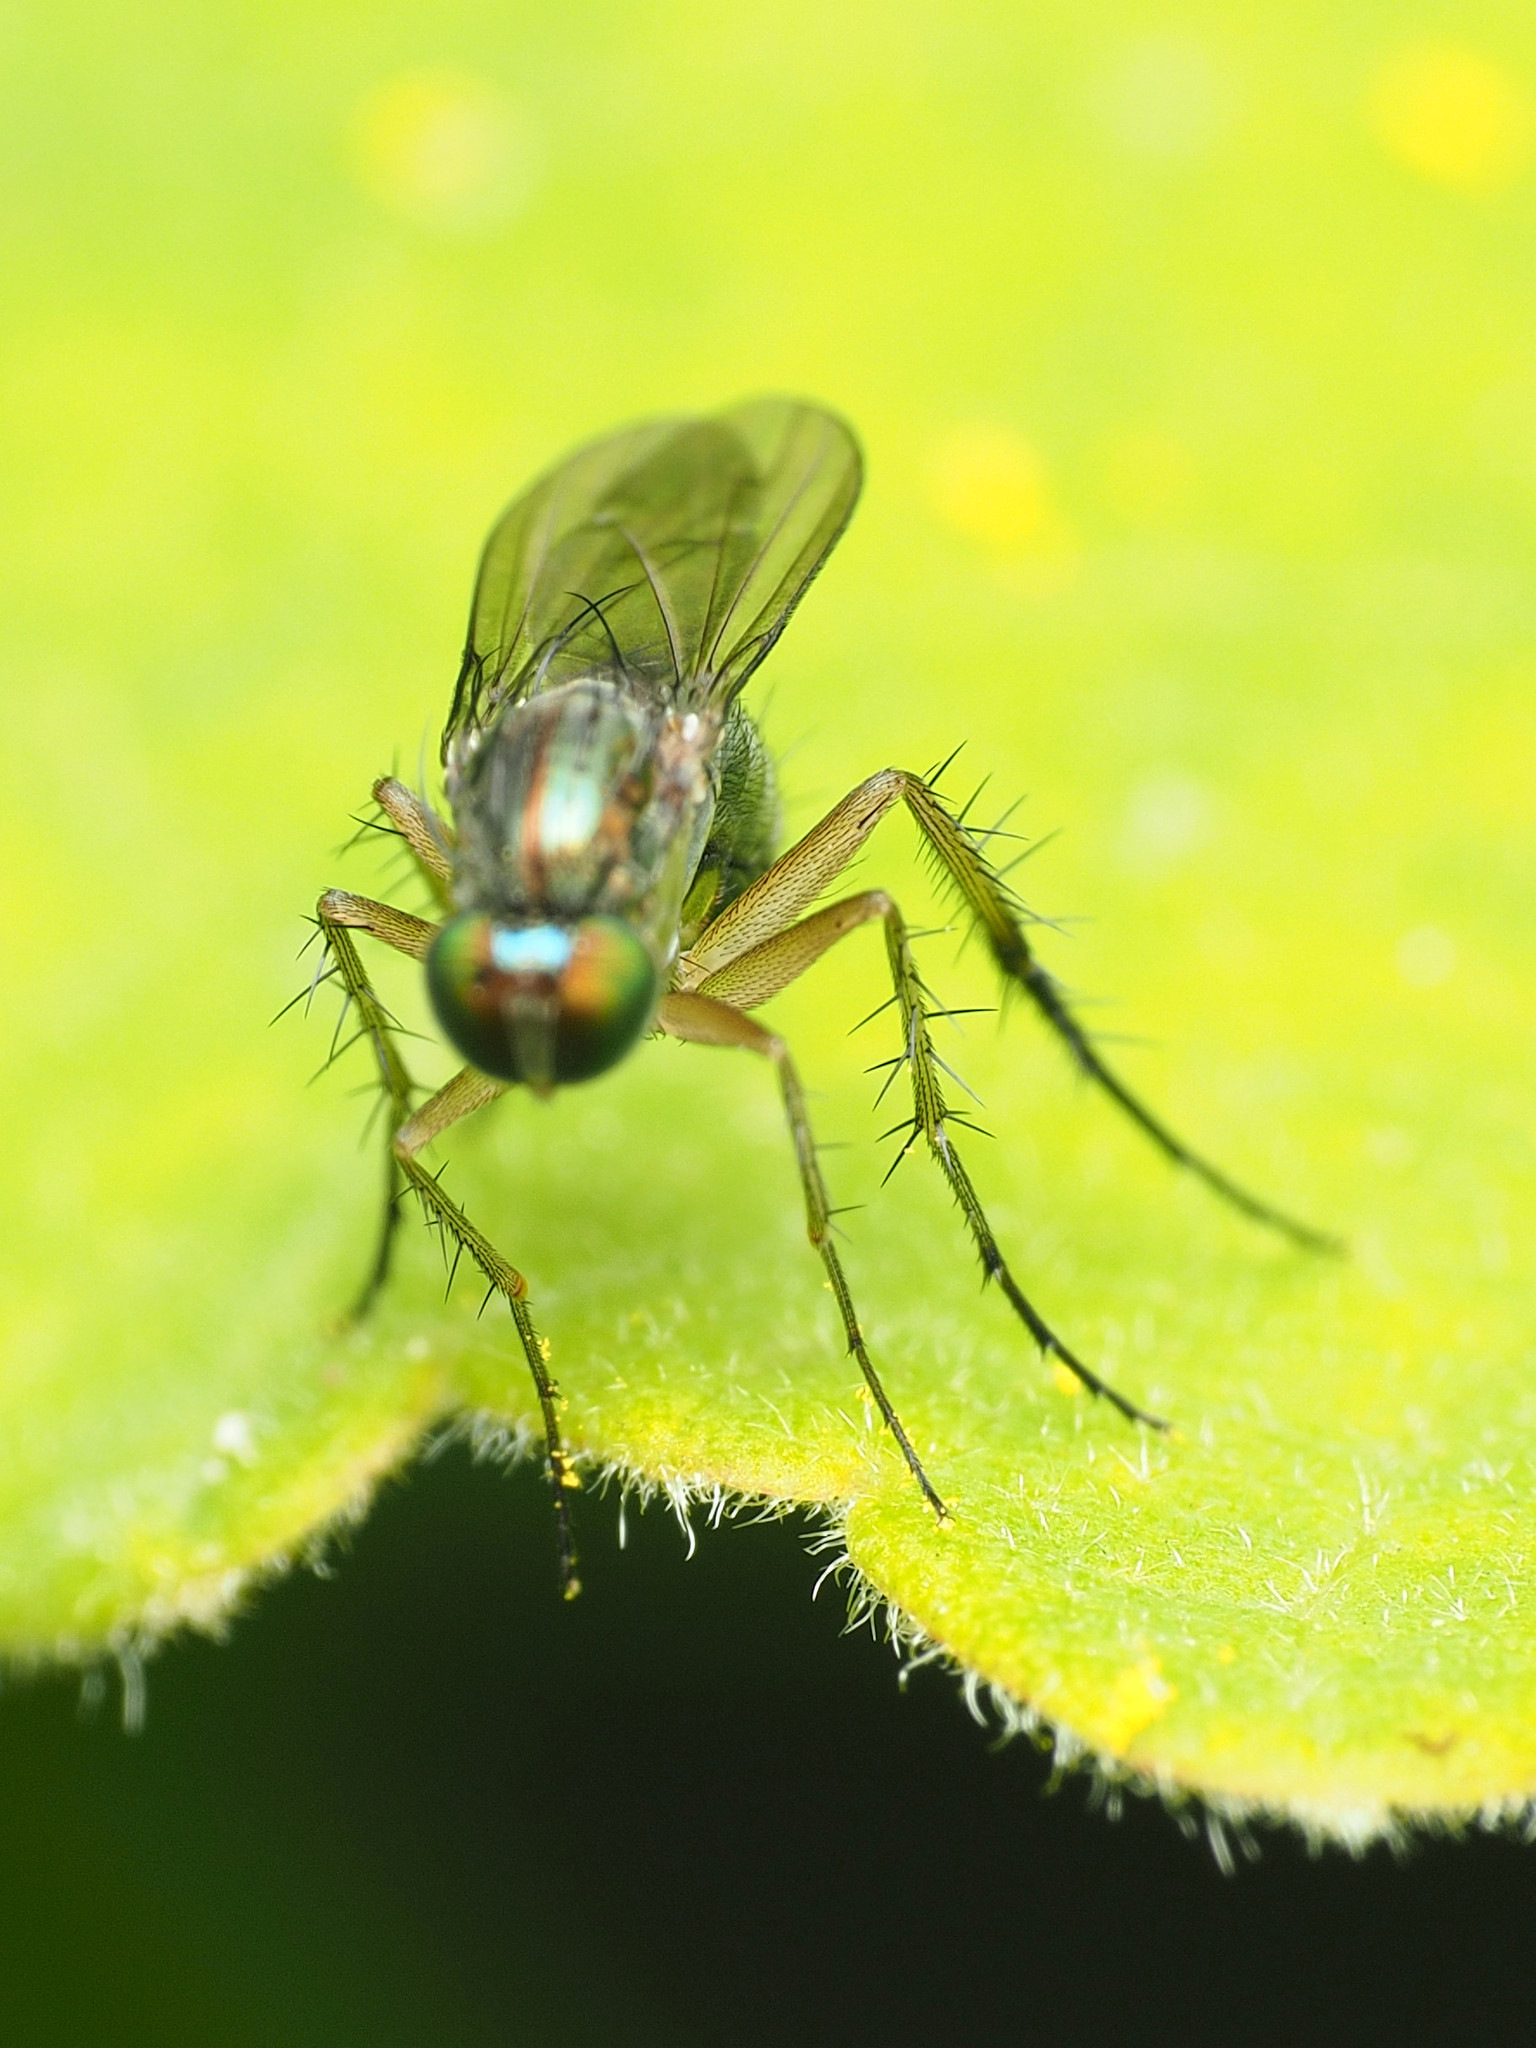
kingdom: Animalia
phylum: Arthropoda
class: Insecta
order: Diptera
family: Dolichopodidae
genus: Dolichopus
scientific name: Dolichopus reflectus
